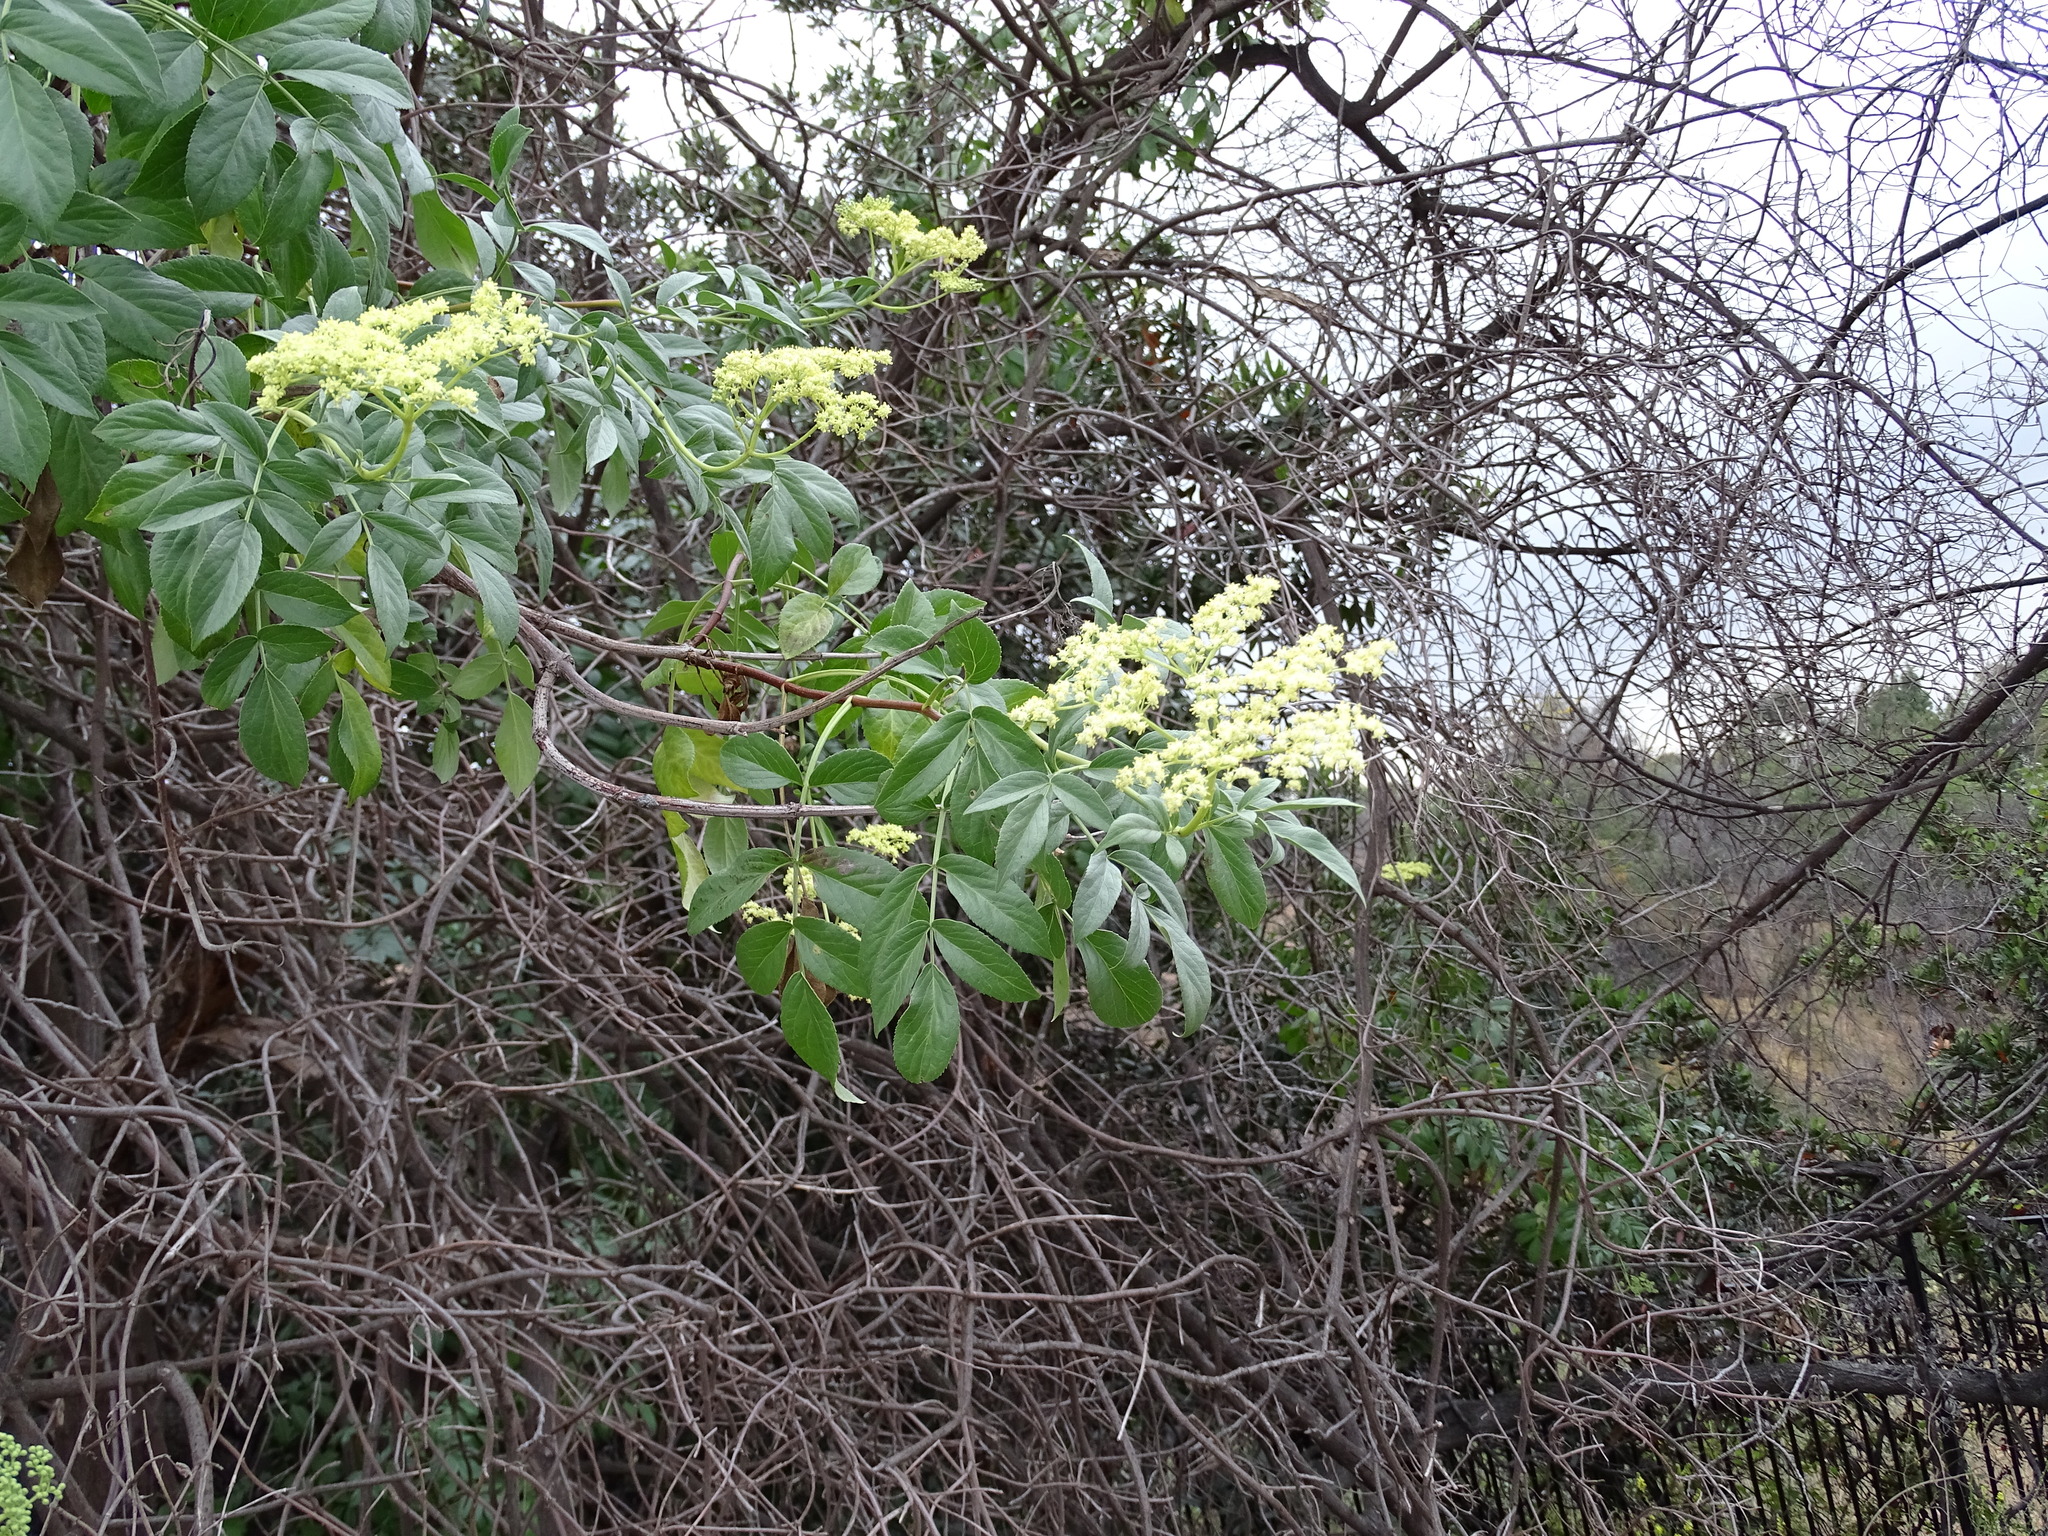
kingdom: Plantae
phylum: Tracheophyta
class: Magnoliopsida
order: Dipsacales
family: Viburnaceae
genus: Sambucus
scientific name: Sambucus cerulea
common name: Blue elder
